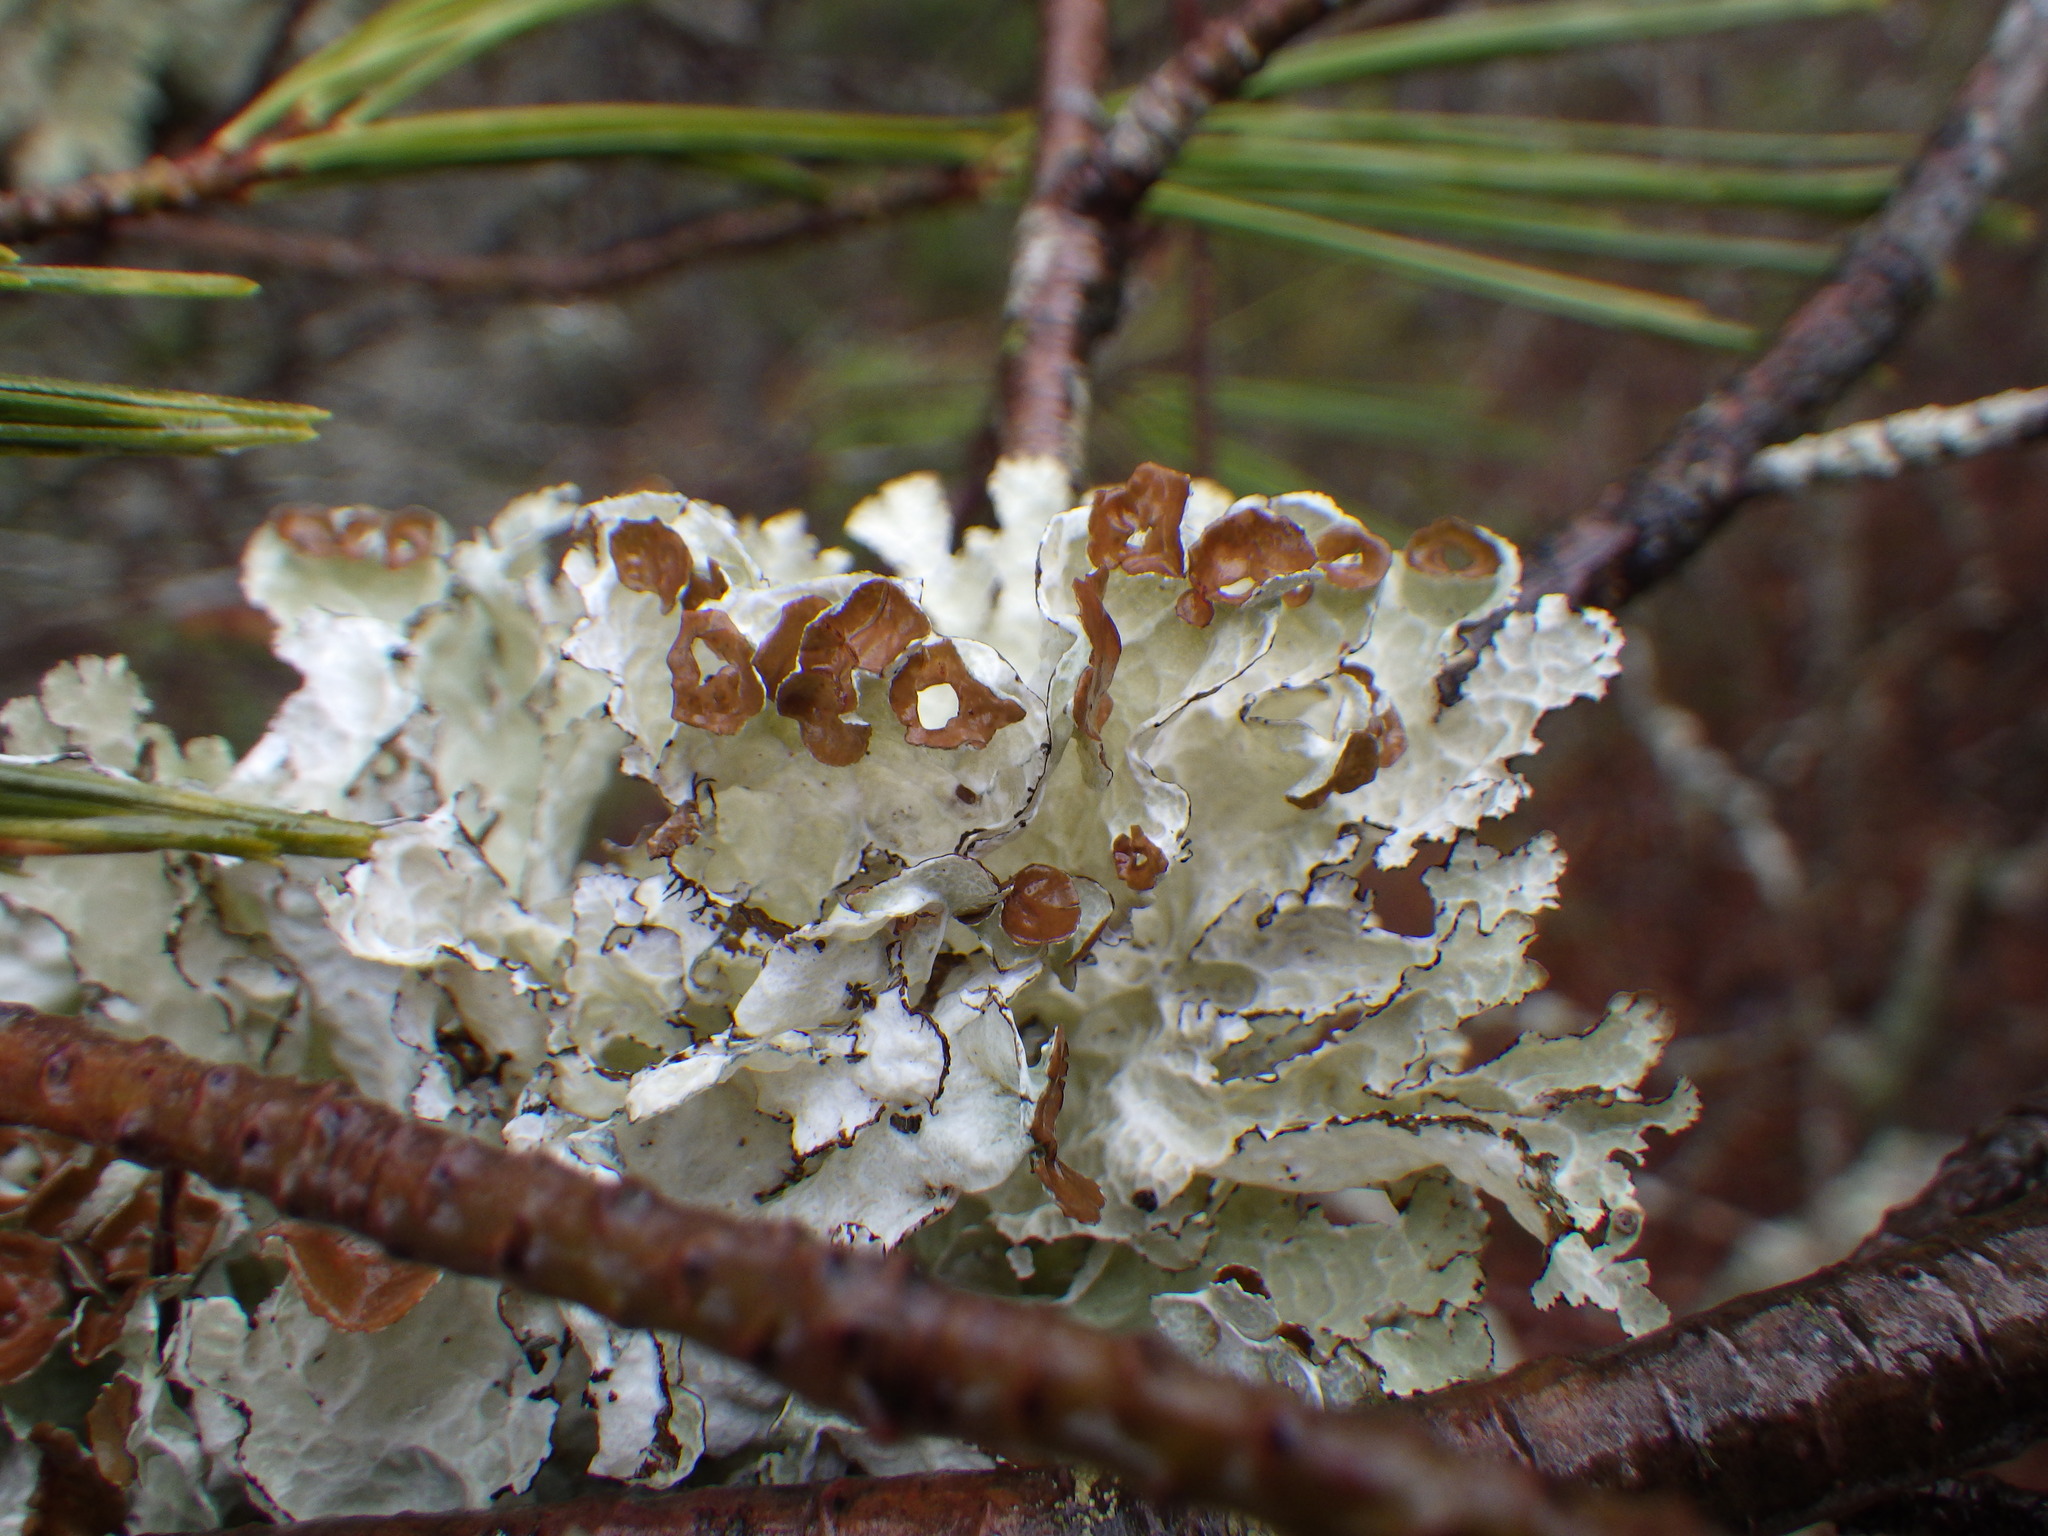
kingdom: Fungi
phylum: Ascomycota
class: Lecanoromycetes
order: Lecanorales
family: Parmeliaceae
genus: Platismatia
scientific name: Platismatia tuckermanii
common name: Crumpled rag lichen
